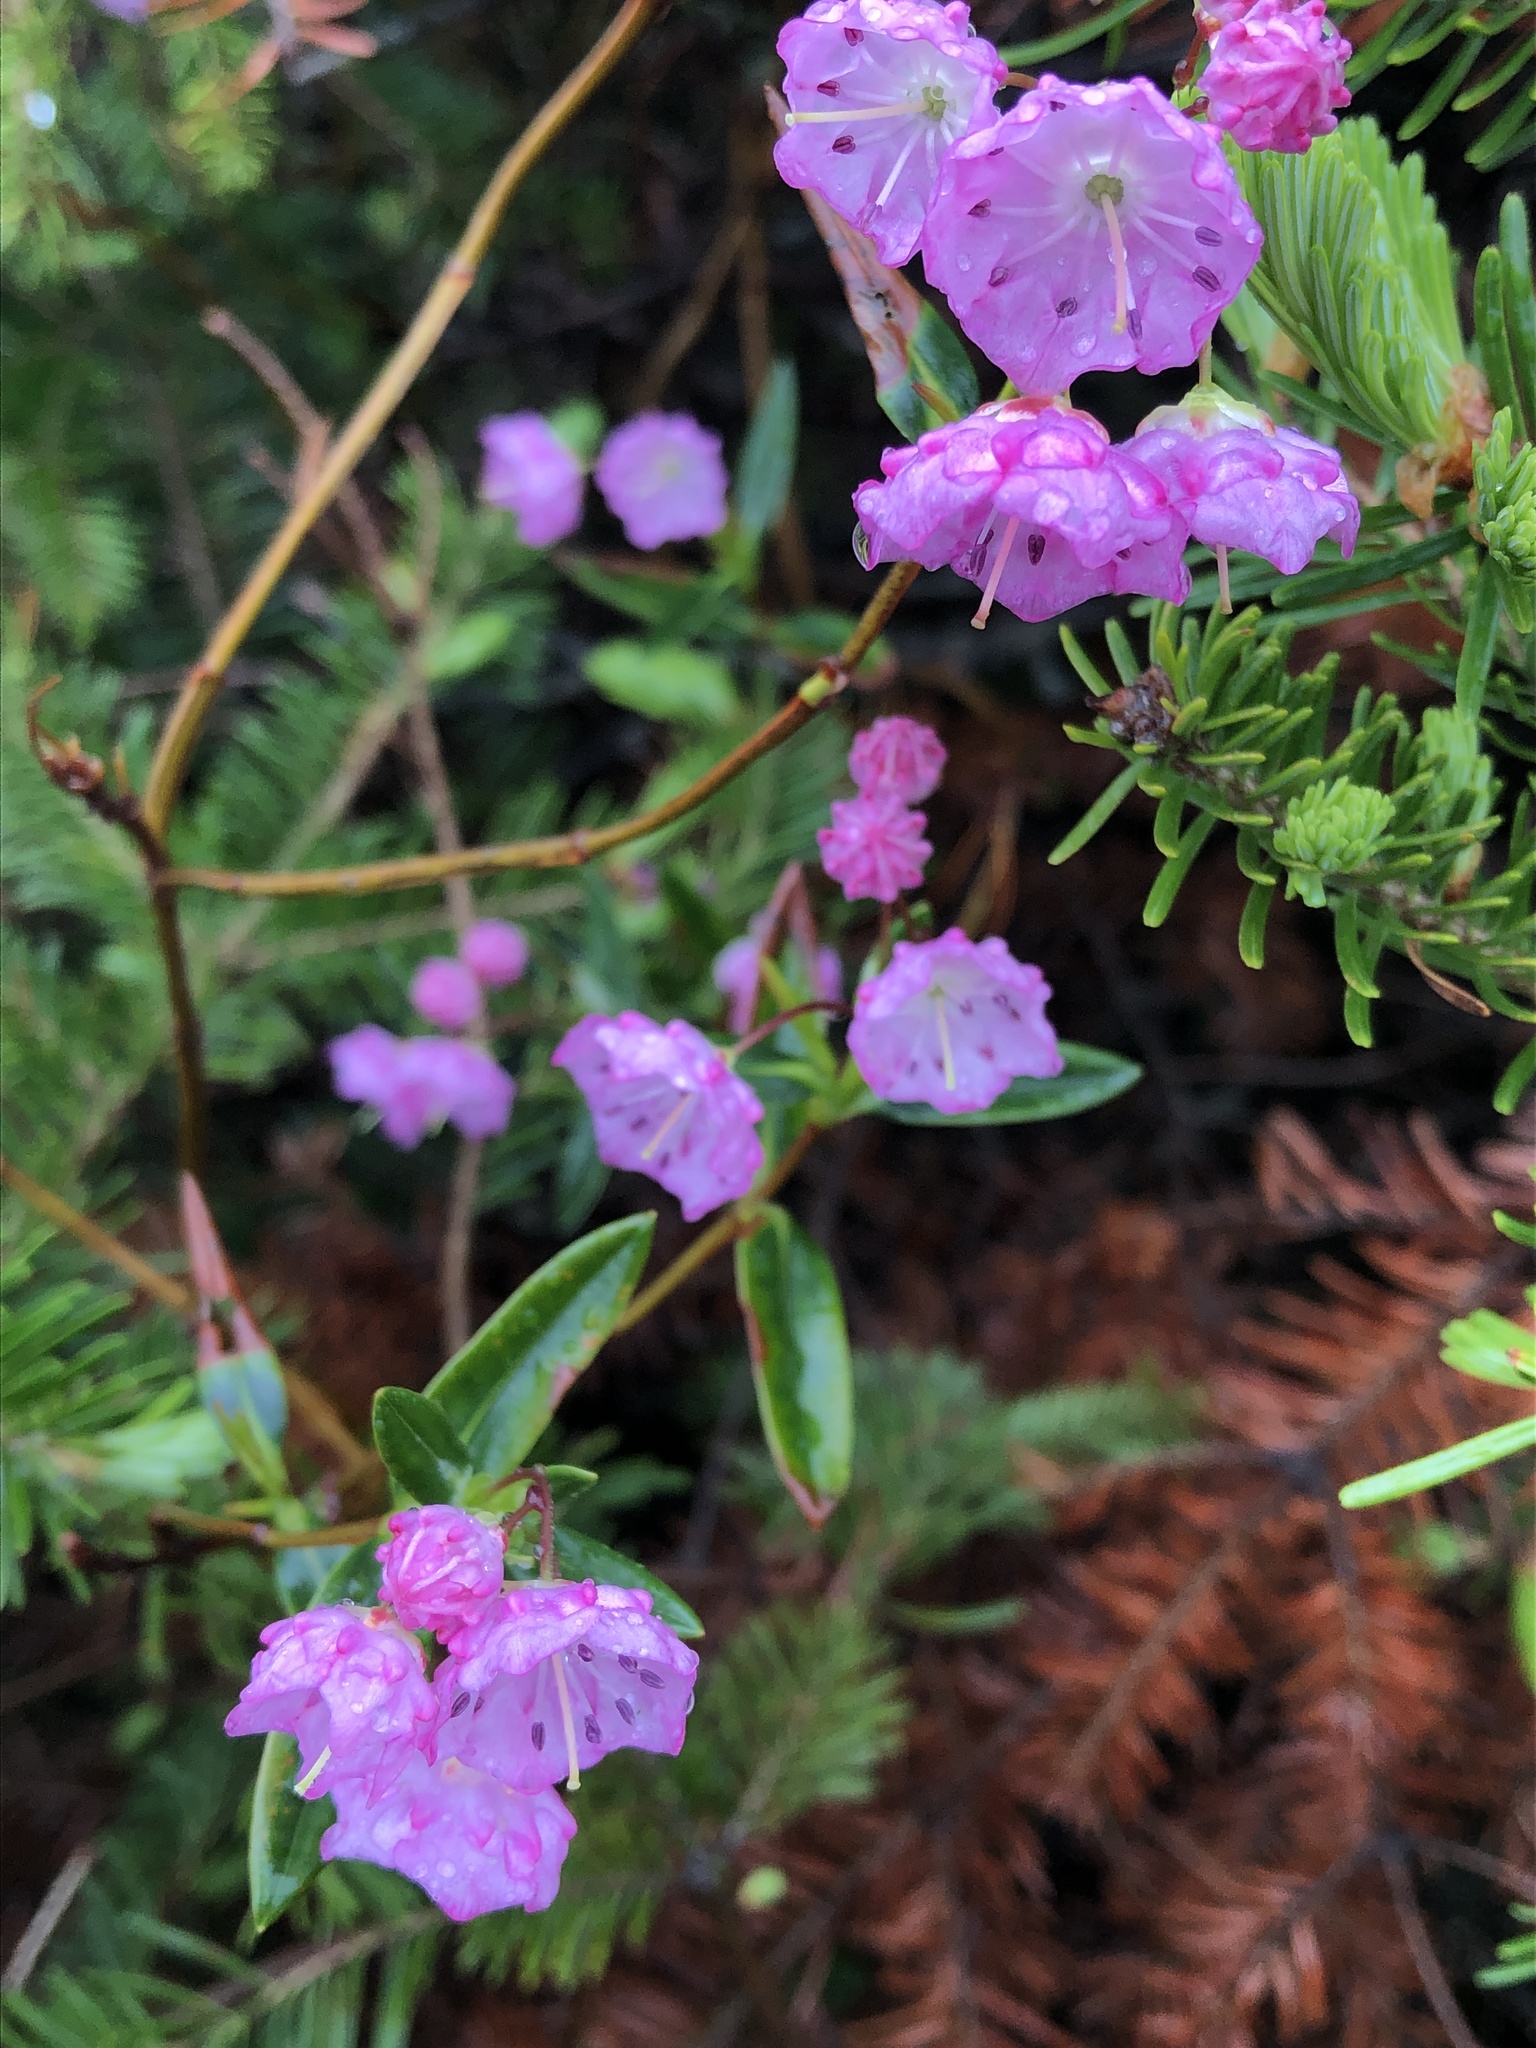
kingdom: Plantae
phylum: Tracheophyta
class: Magnoliopsida
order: Ericales
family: Ericaceae
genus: Kalmia
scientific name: Kalmia polifolia
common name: Bog-laurel
